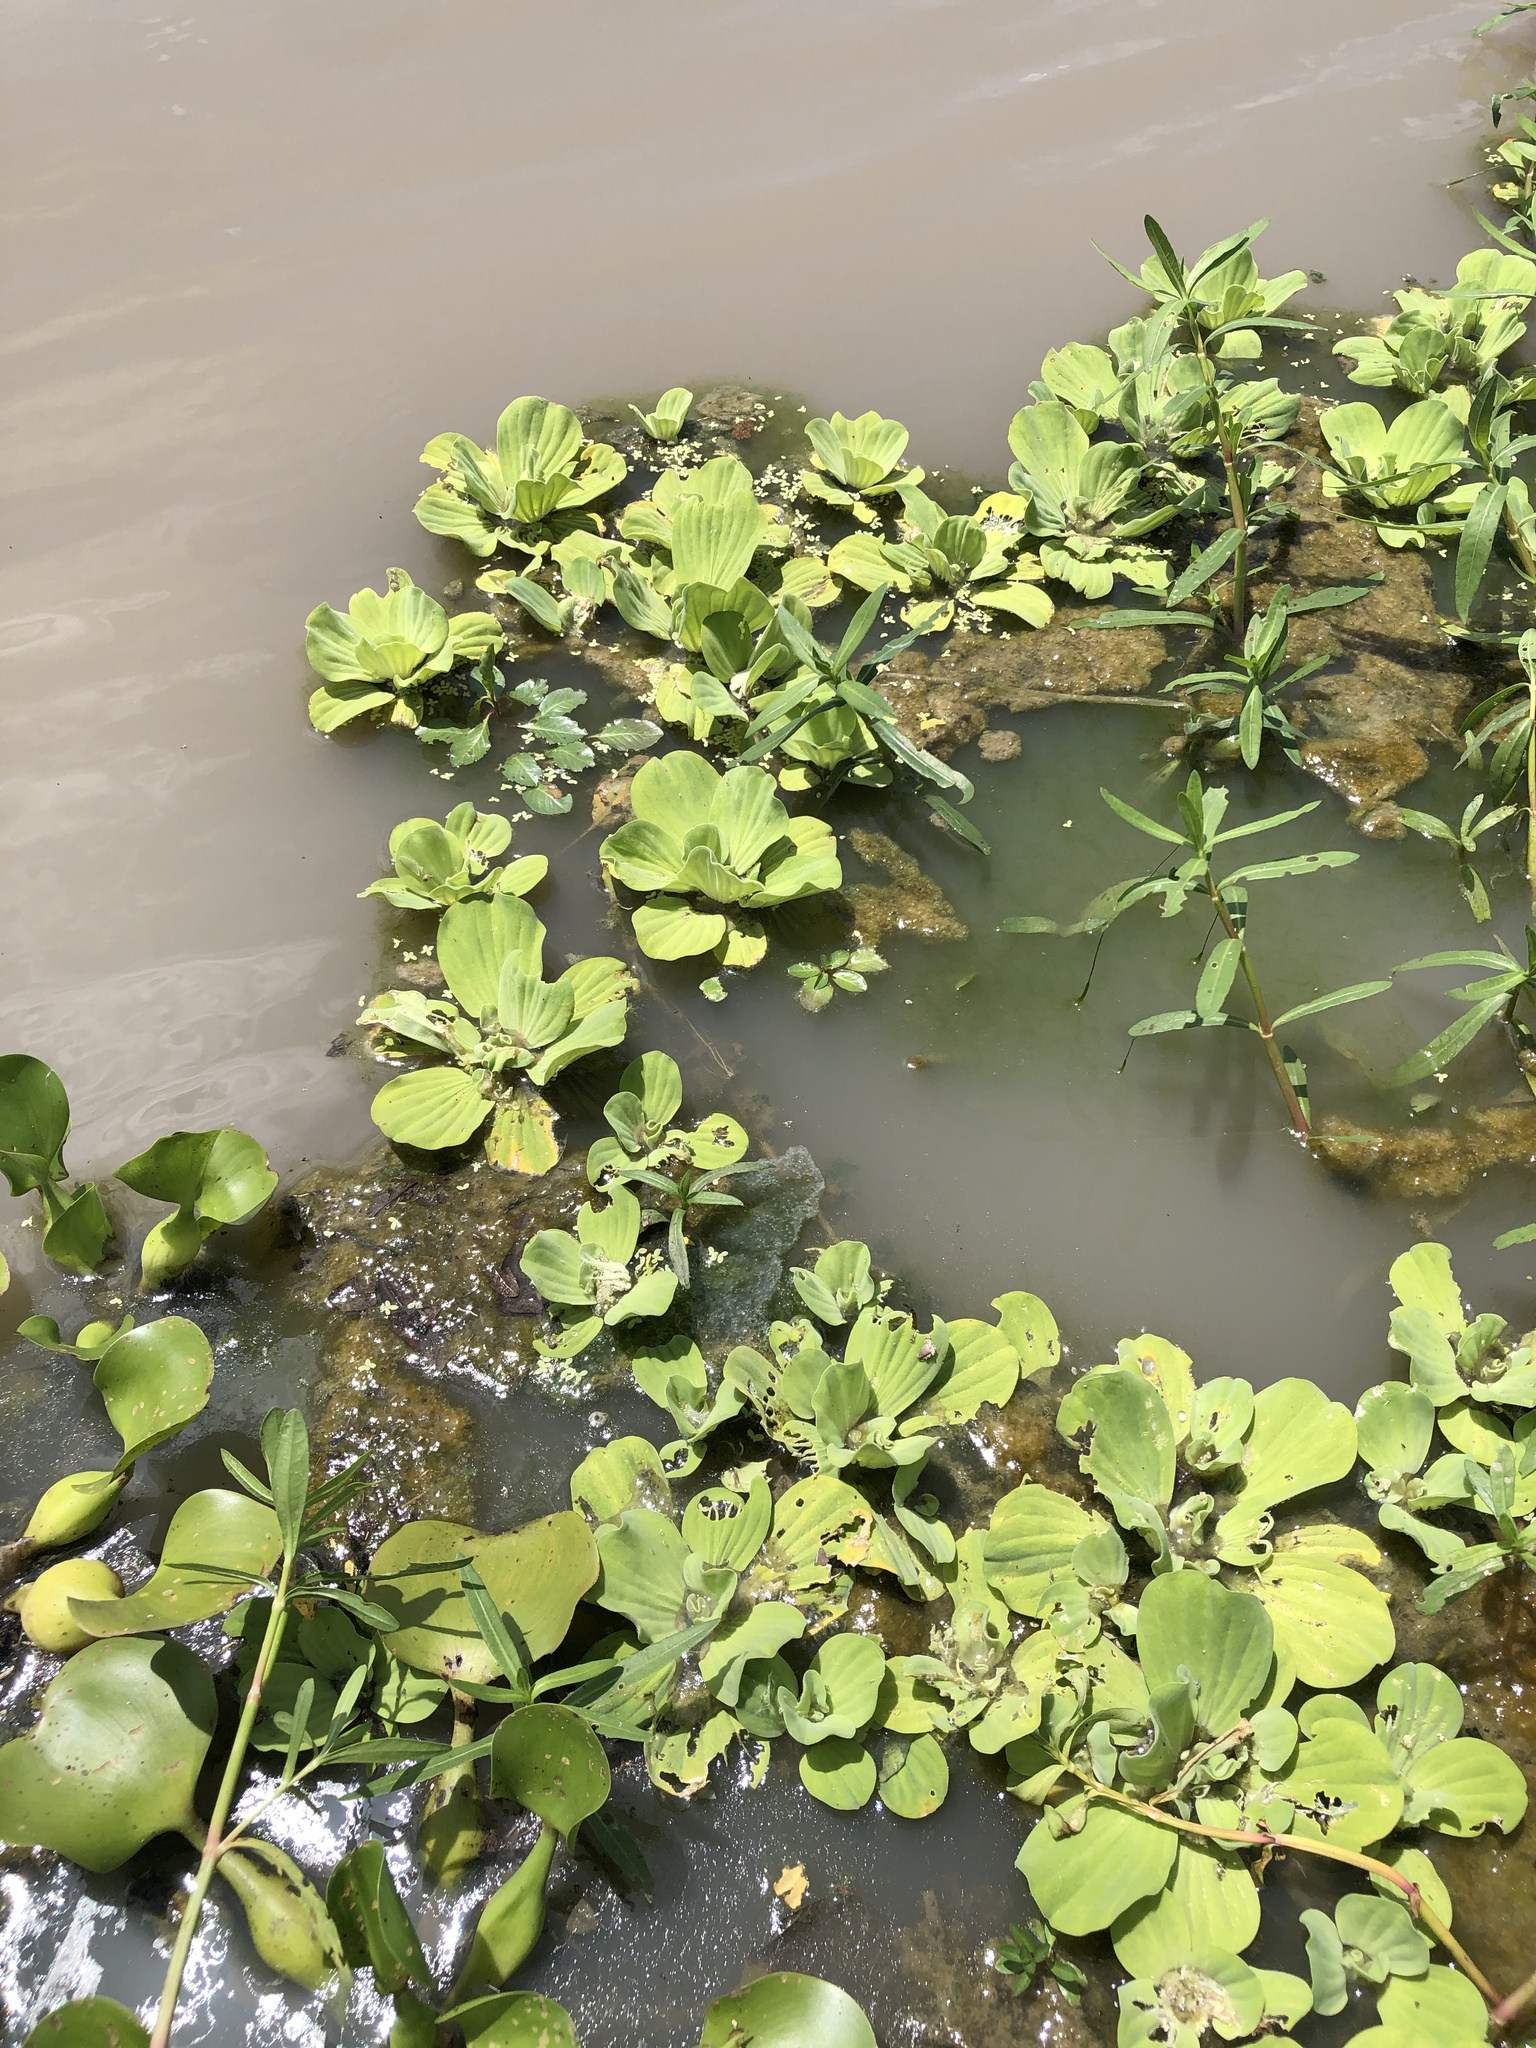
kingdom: Plantae
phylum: Tracheophyta
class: Liliopsida
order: Alismatales
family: Araceae
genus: Pistia
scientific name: Pistia stratiotes
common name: Water lettuce
